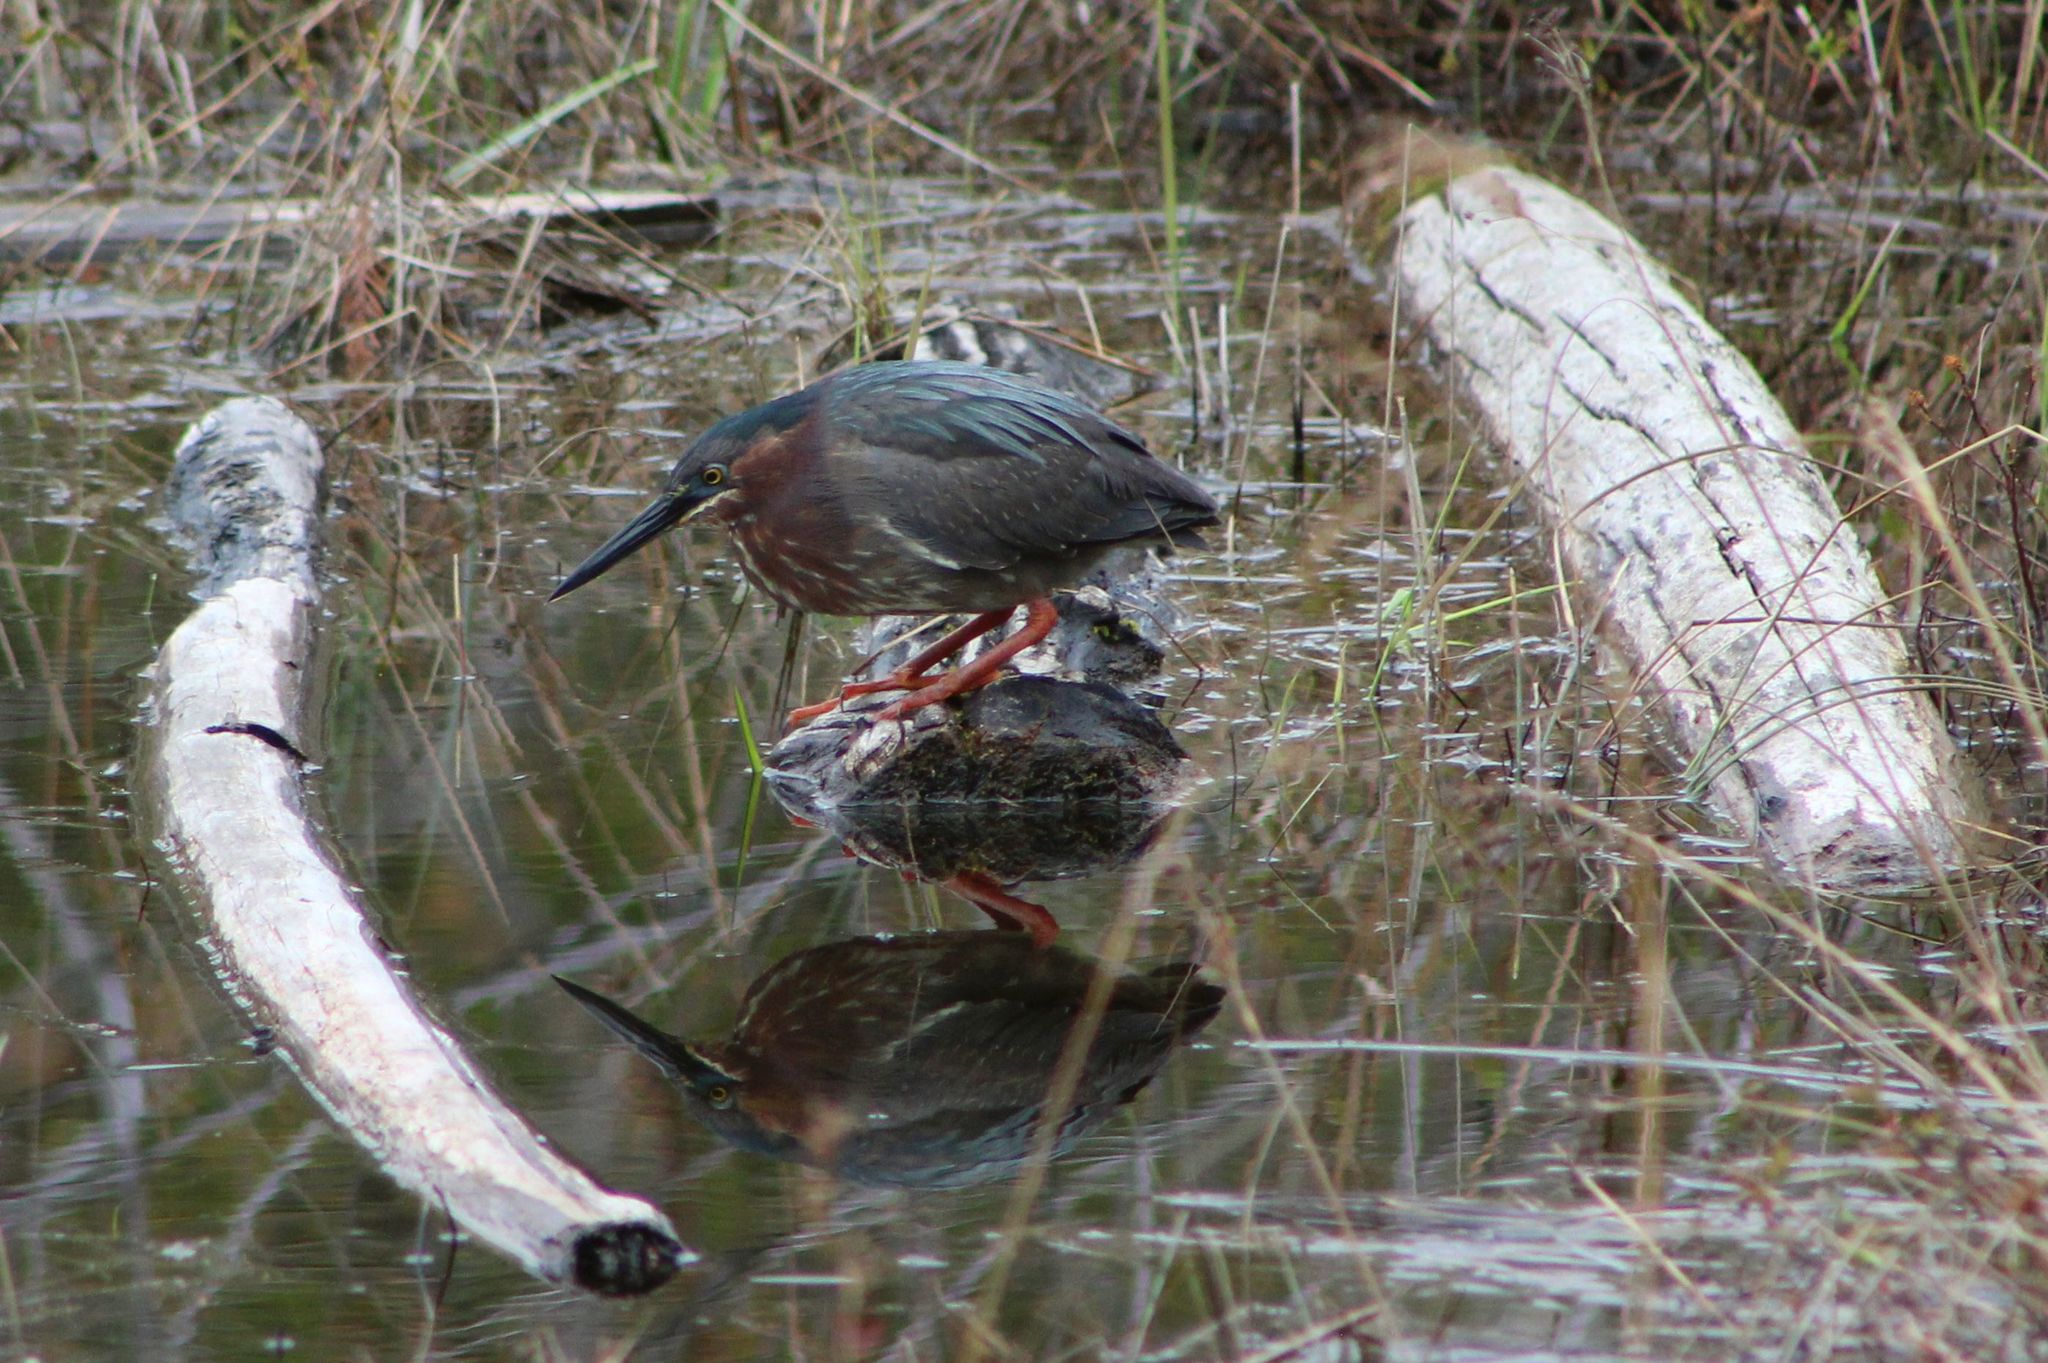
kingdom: Animalia
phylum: Chordata
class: Aves
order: Pelecaniformes
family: Ardeidae
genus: Butorides
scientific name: Butorides virescens
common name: Green heron
